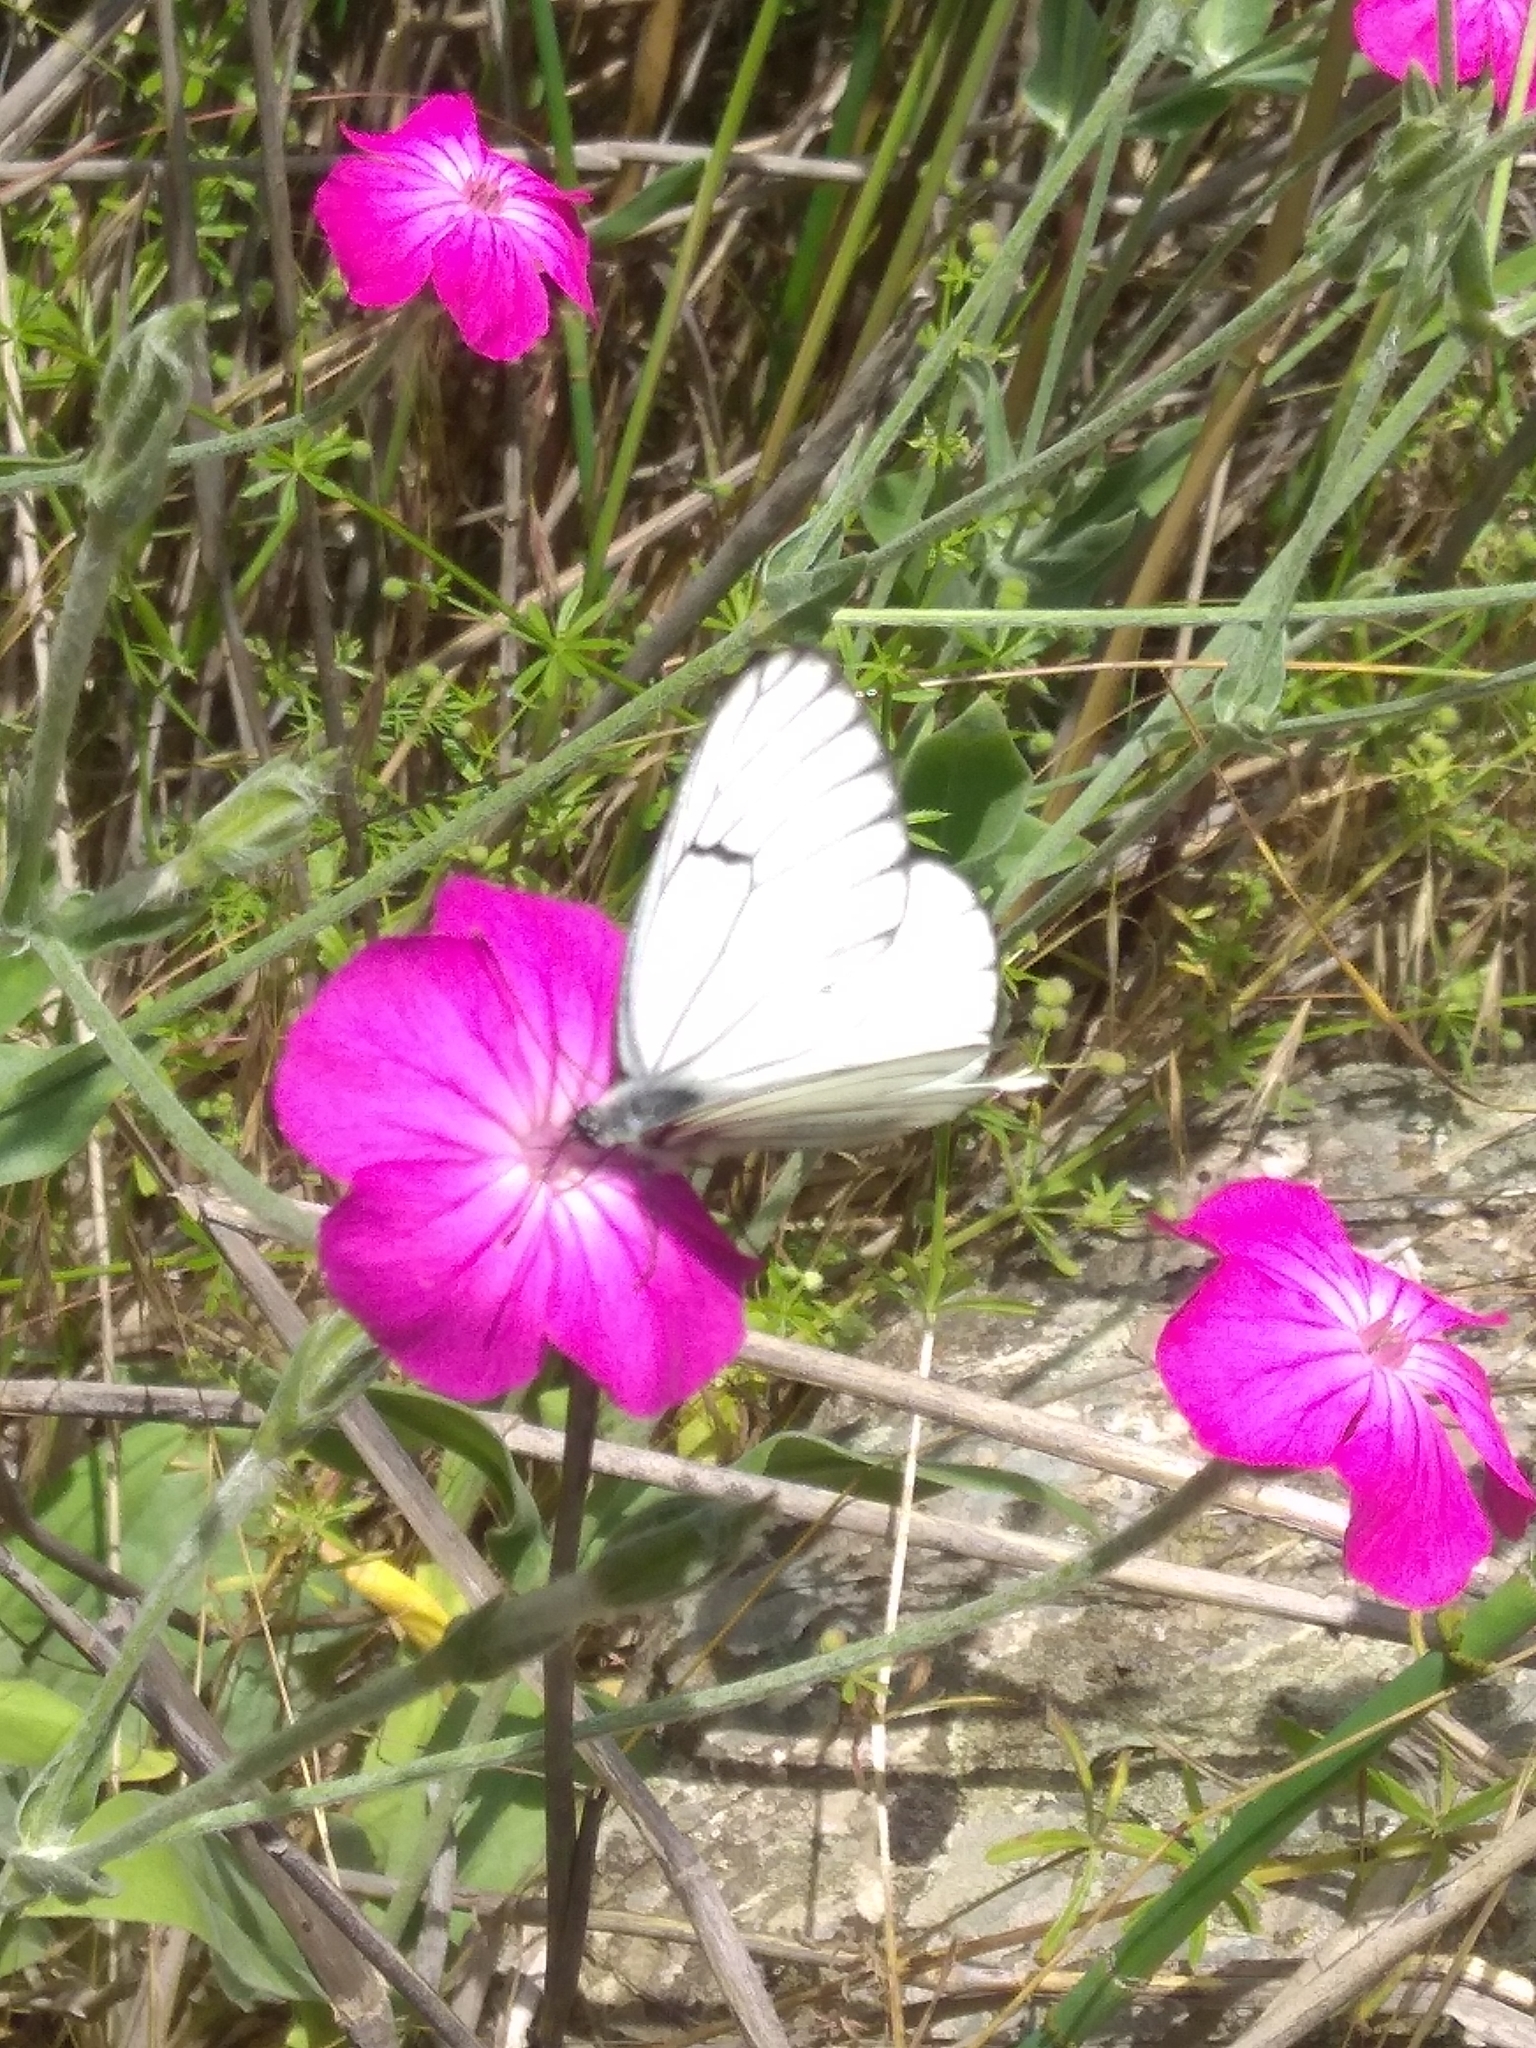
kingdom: Animalia
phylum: Arthropoda
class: Insecta
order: Lepidoptera
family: Pieridae
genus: Aporia
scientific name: Aporia crataegi
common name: Black-veined white
